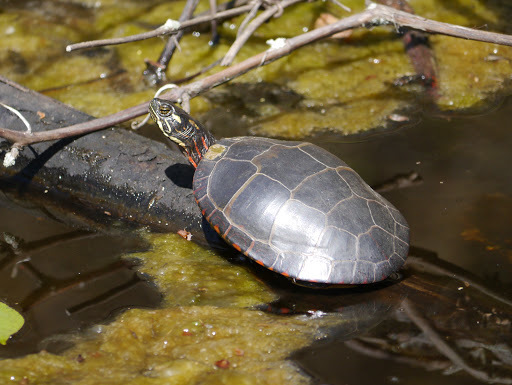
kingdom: Animalia
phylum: Chordata
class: Testudines
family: Emydidae
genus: Chrysemys
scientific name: Chrysemys picta
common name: Painted turtle
